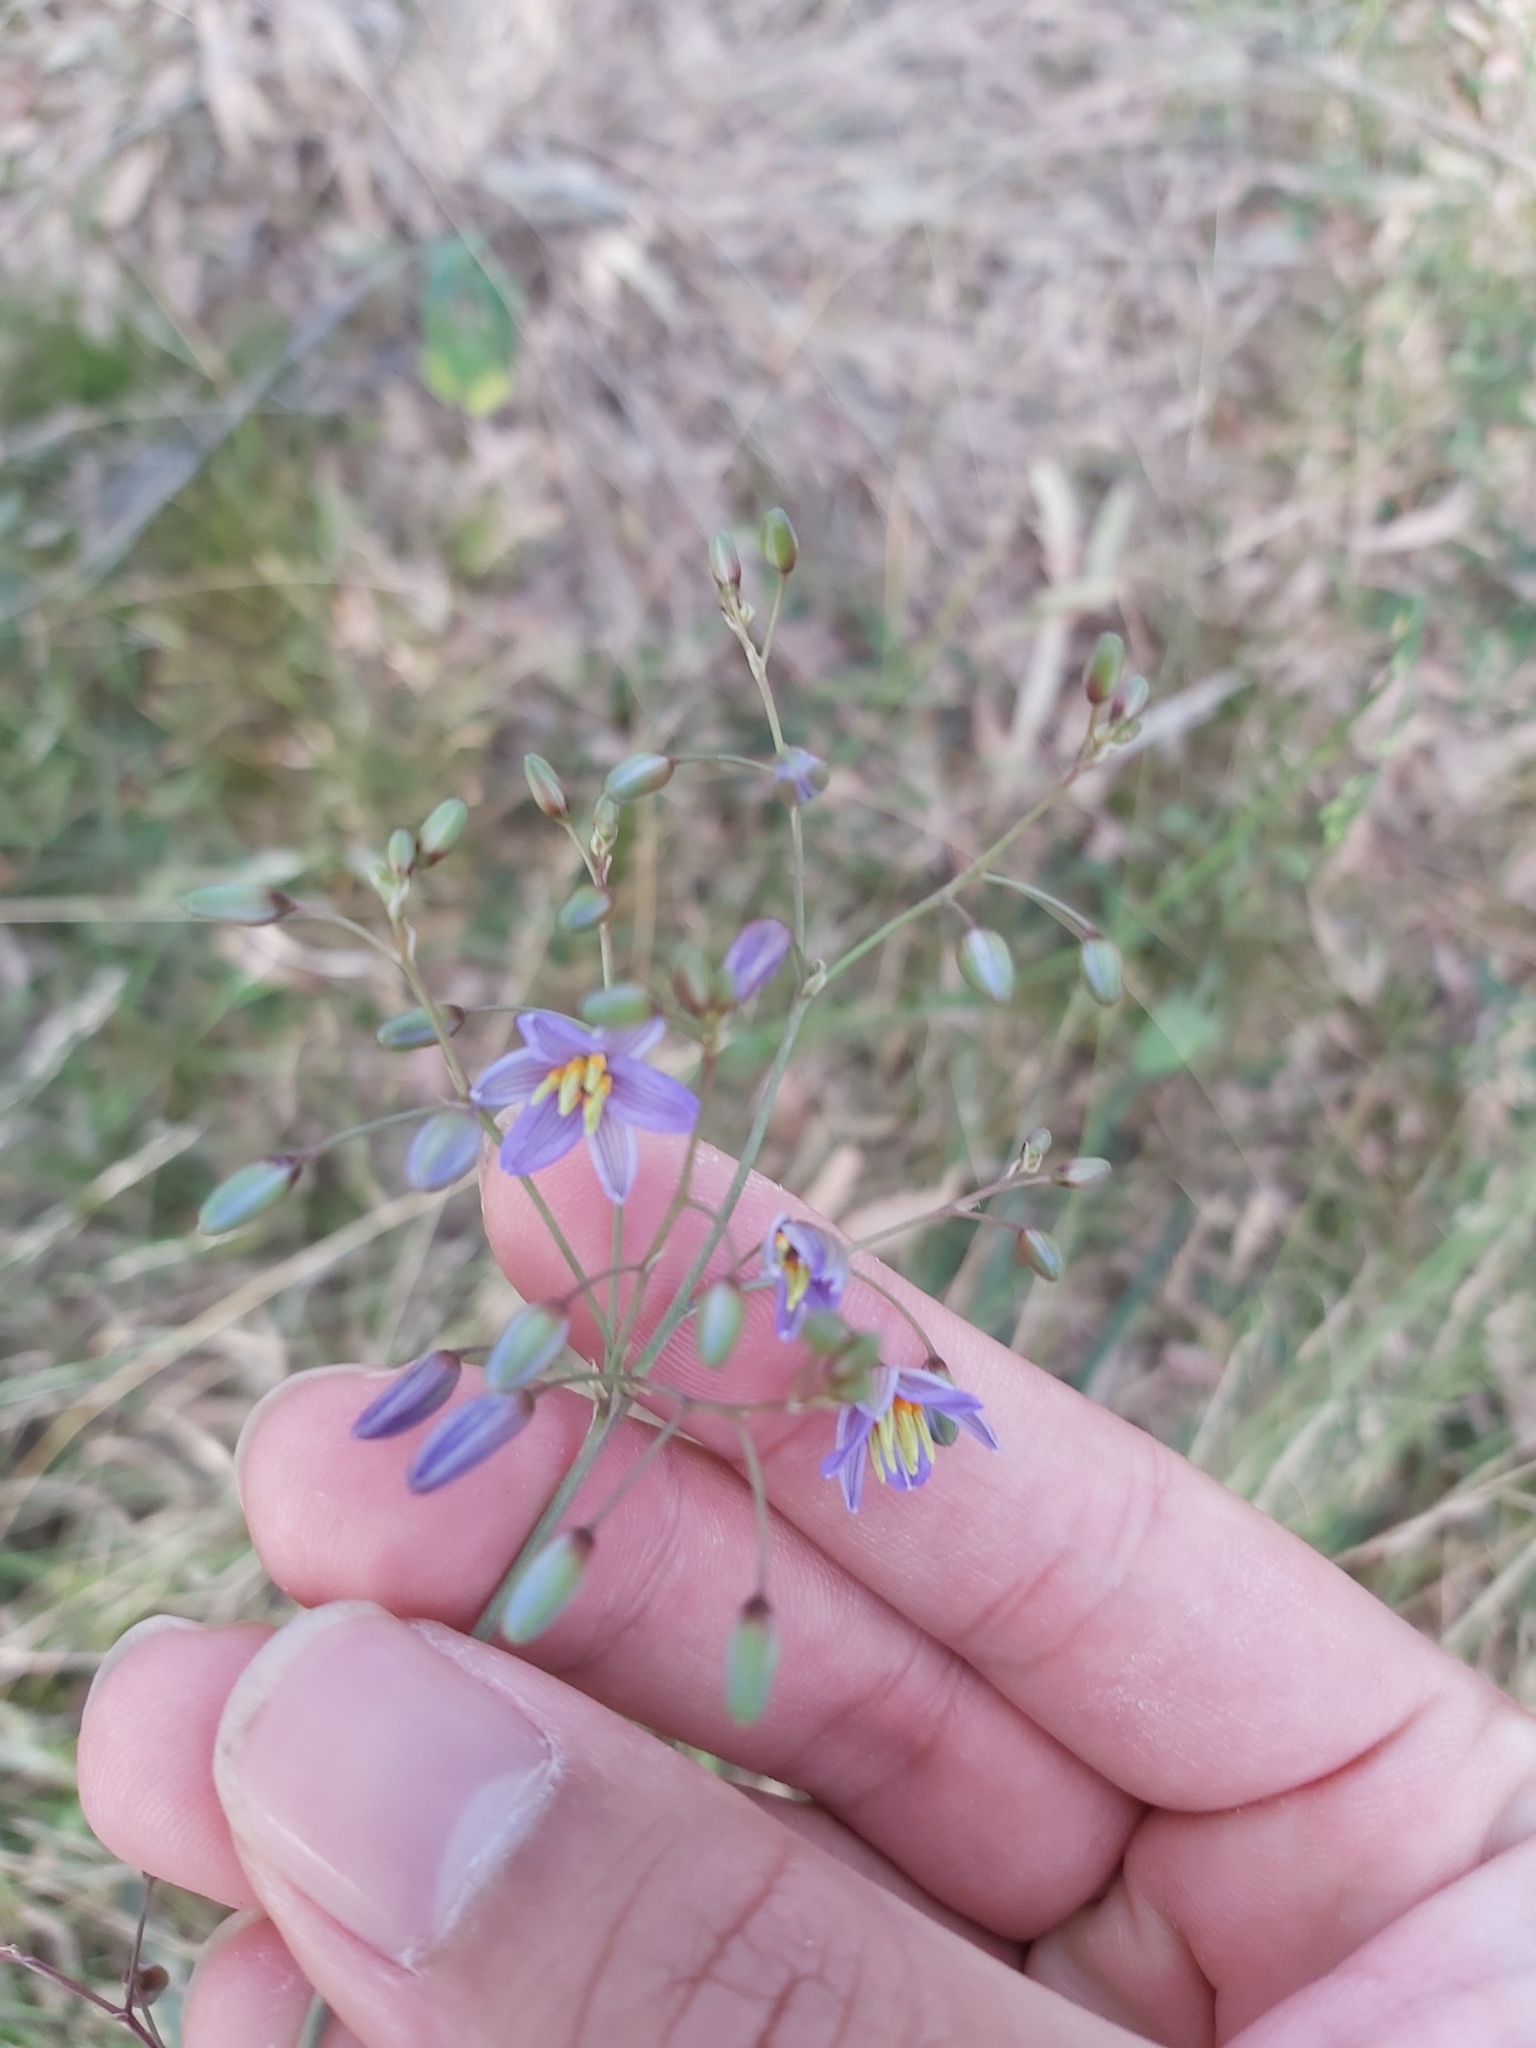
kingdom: Plantae
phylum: Tracheophyta
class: Liliopsida
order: Asparagales
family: Asphodelaceae
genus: Dianella
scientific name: Dianella longifolia
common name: Blue flax-lily
